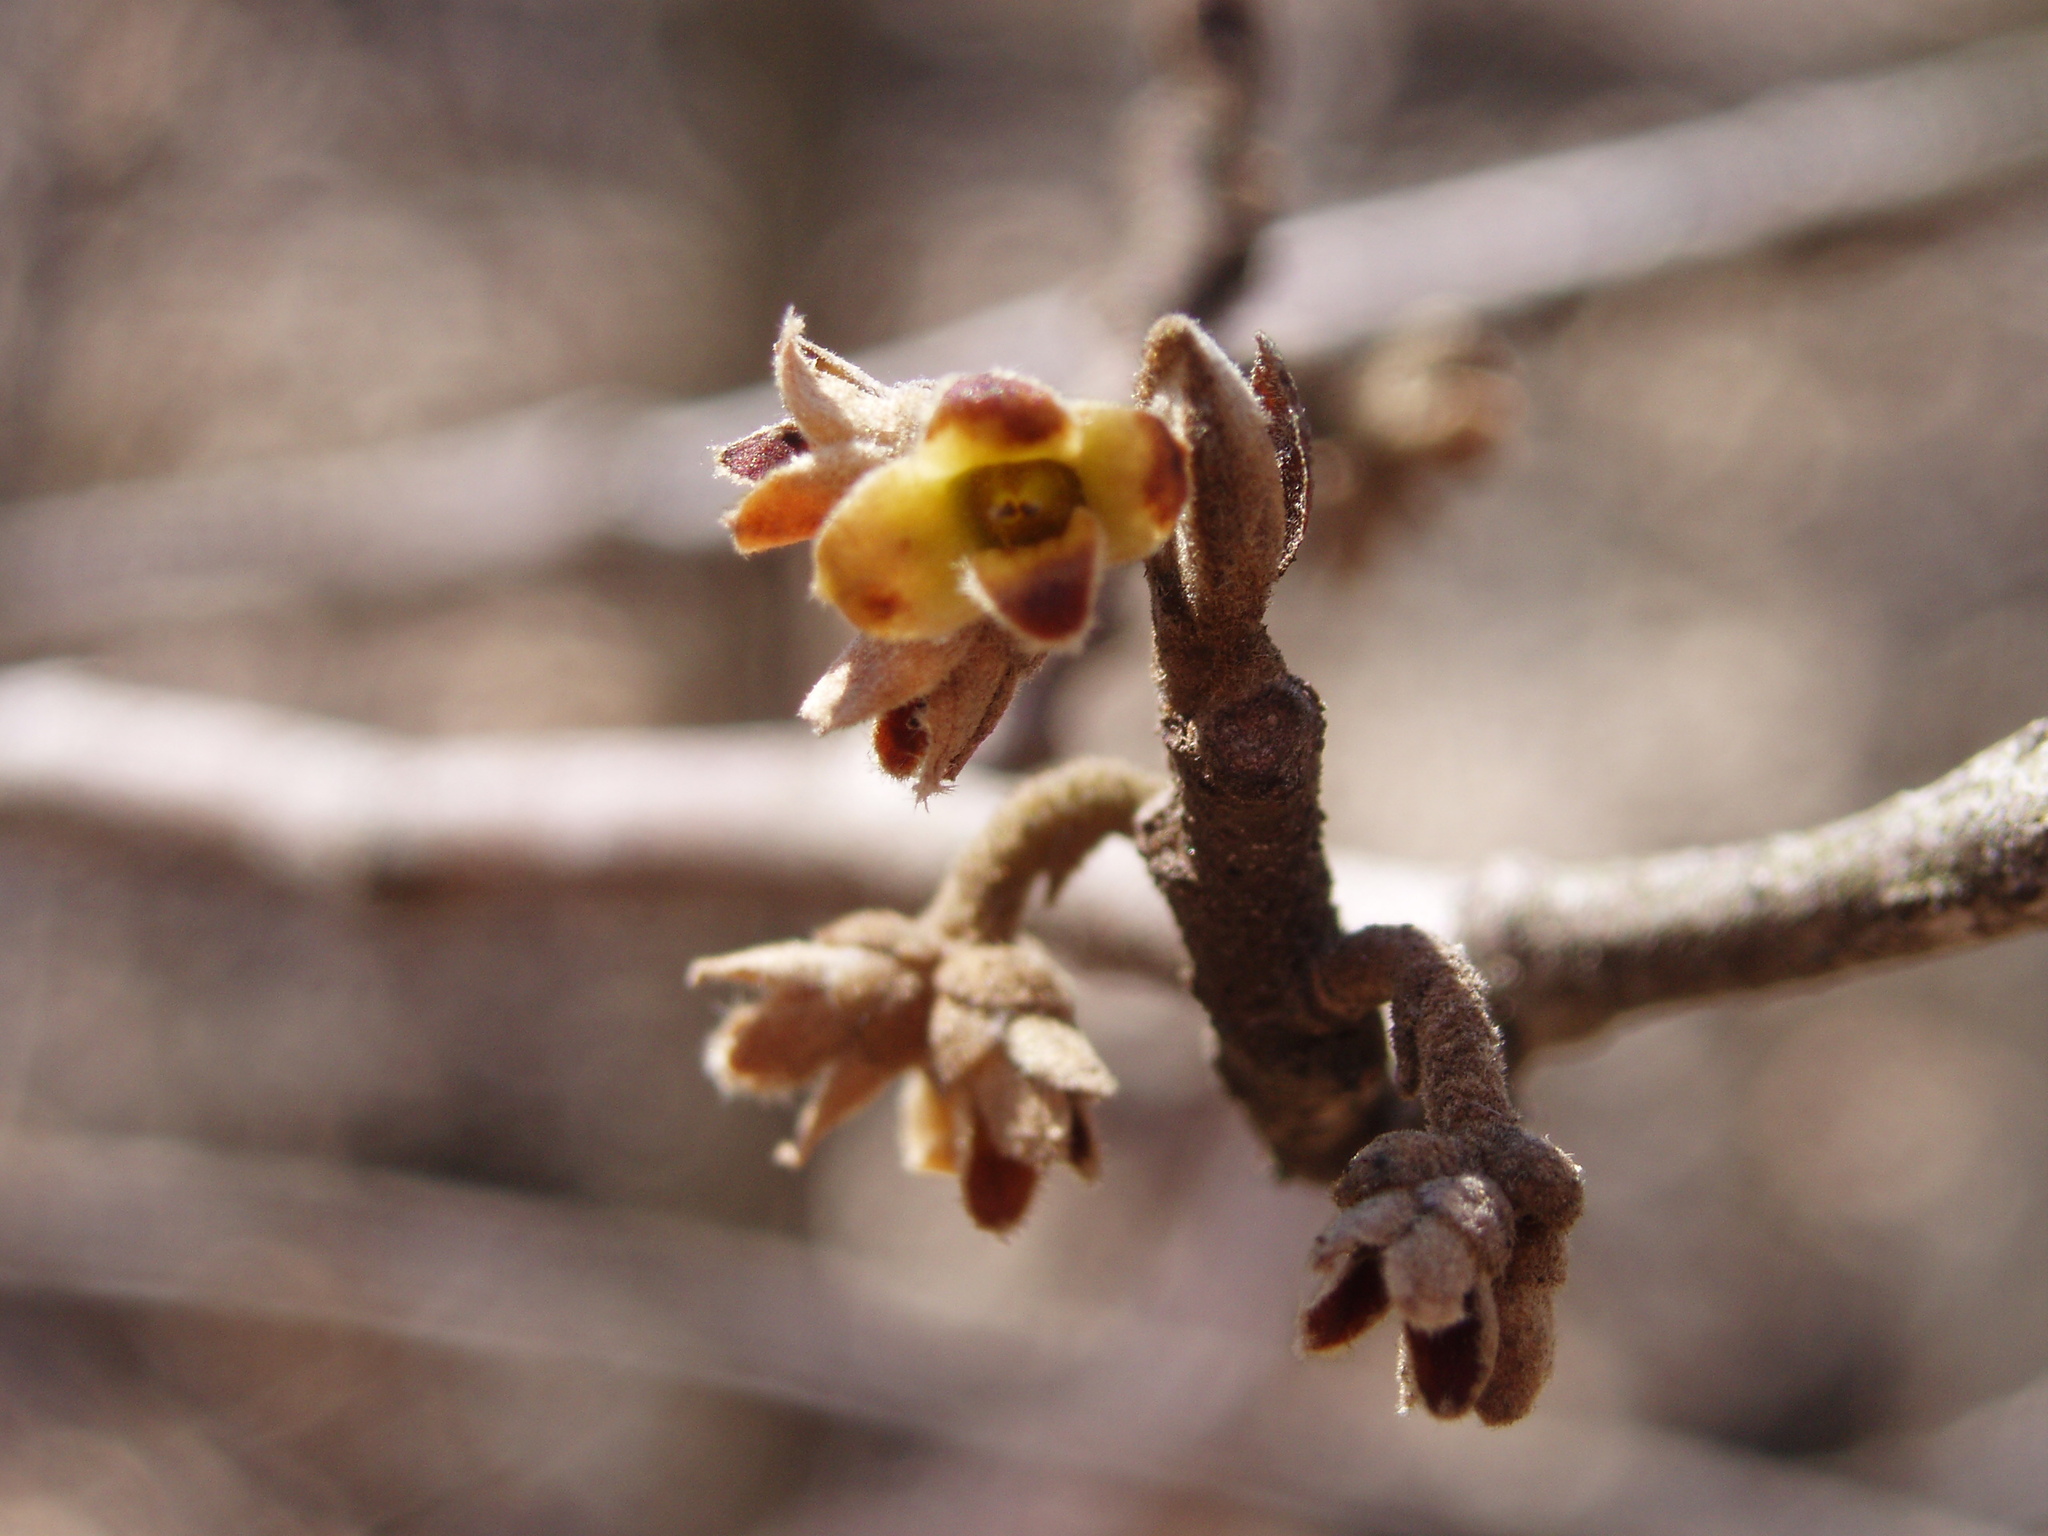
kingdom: Plantae
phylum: Tracheophyta
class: Magnoliopsida
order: Saxifragales
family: Hamamelidaceae
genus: Hamamelis
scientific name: Hamamelis virginiana
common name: Witch-hazel
